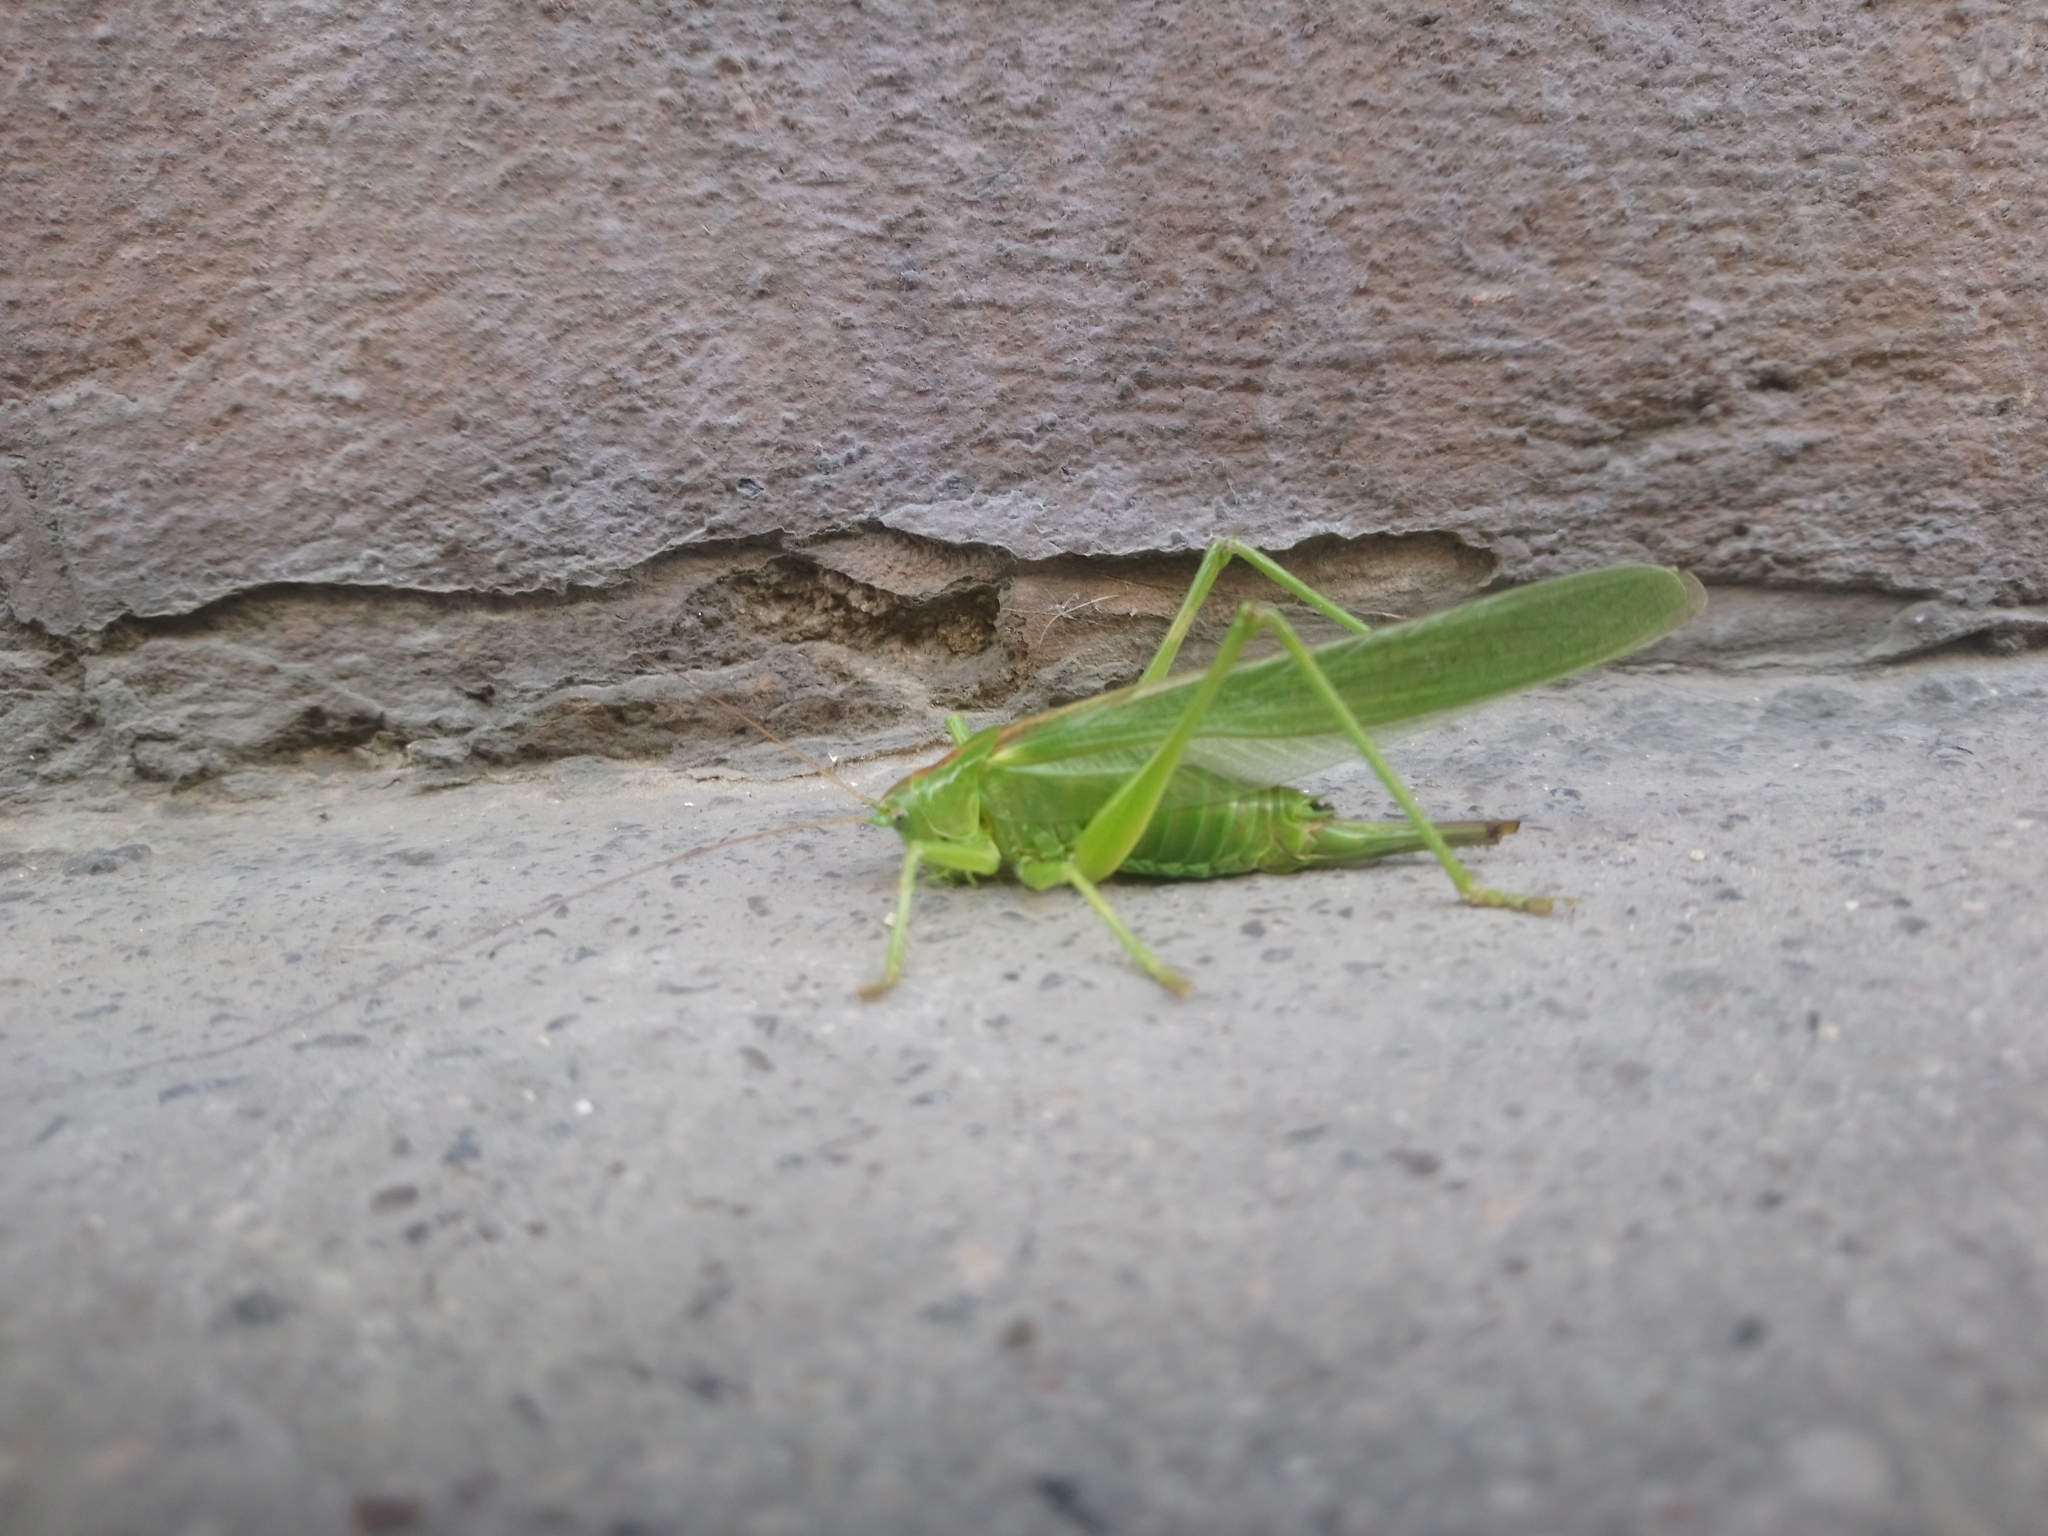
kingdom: Animalia
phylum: Arthropoda
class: Insecta
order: Orthoptera
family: Tettigoniidae
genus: Tettigonia
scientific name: Tettigonia viridissima
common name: Great green bush-cricket
